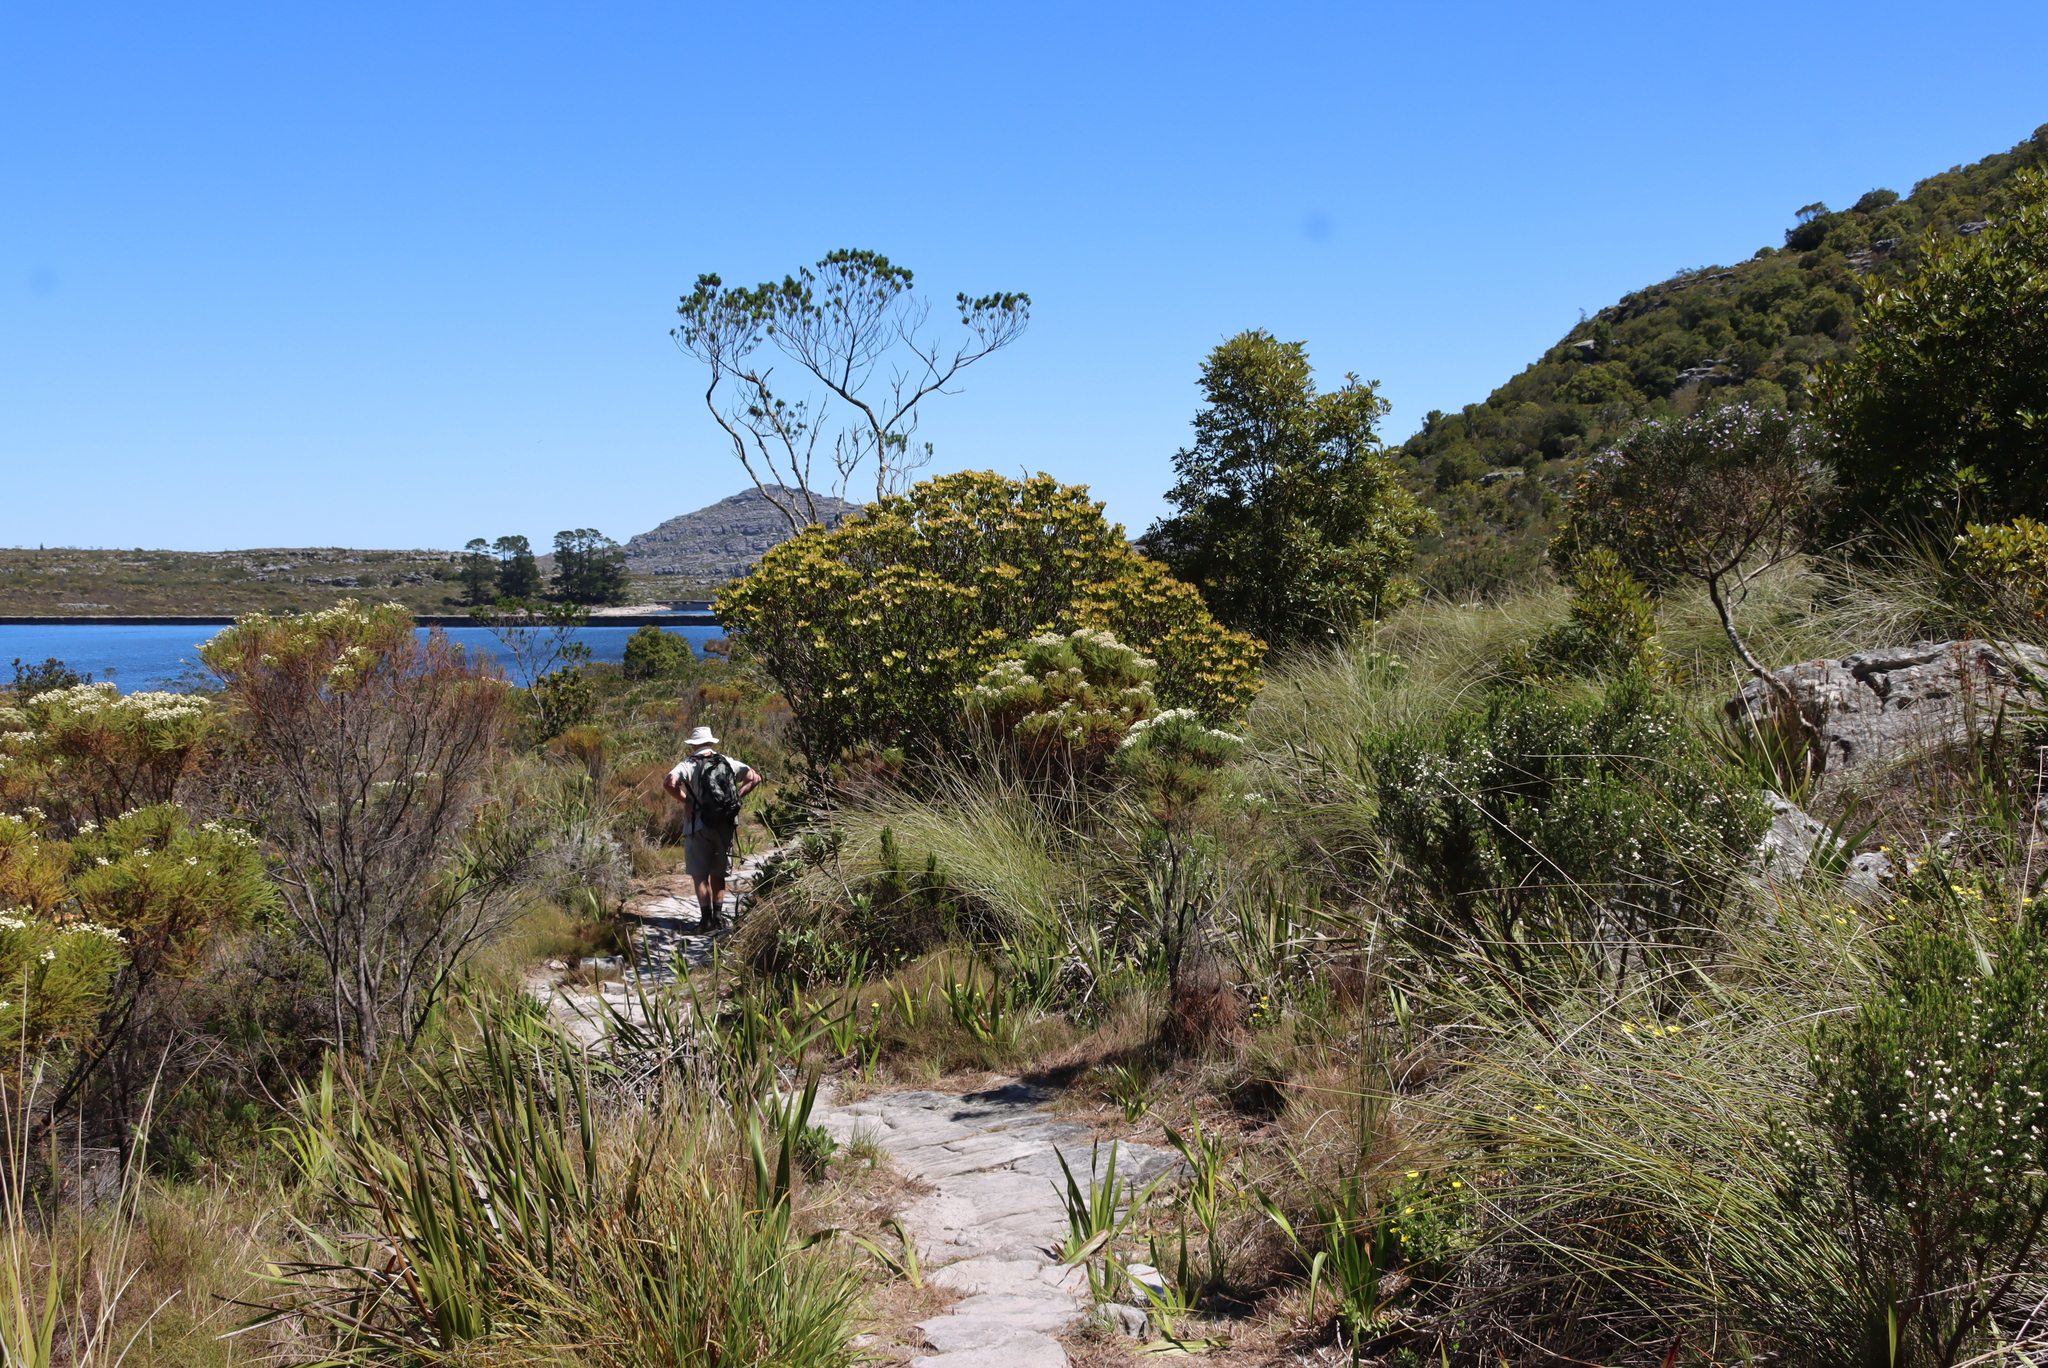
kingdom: Plantae
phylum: Tracheophyta
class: Magnoliopsida
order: Fabales
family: Fabaceae
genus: Psoralea
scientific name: Psoralea pinnata
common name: African scurfpea
